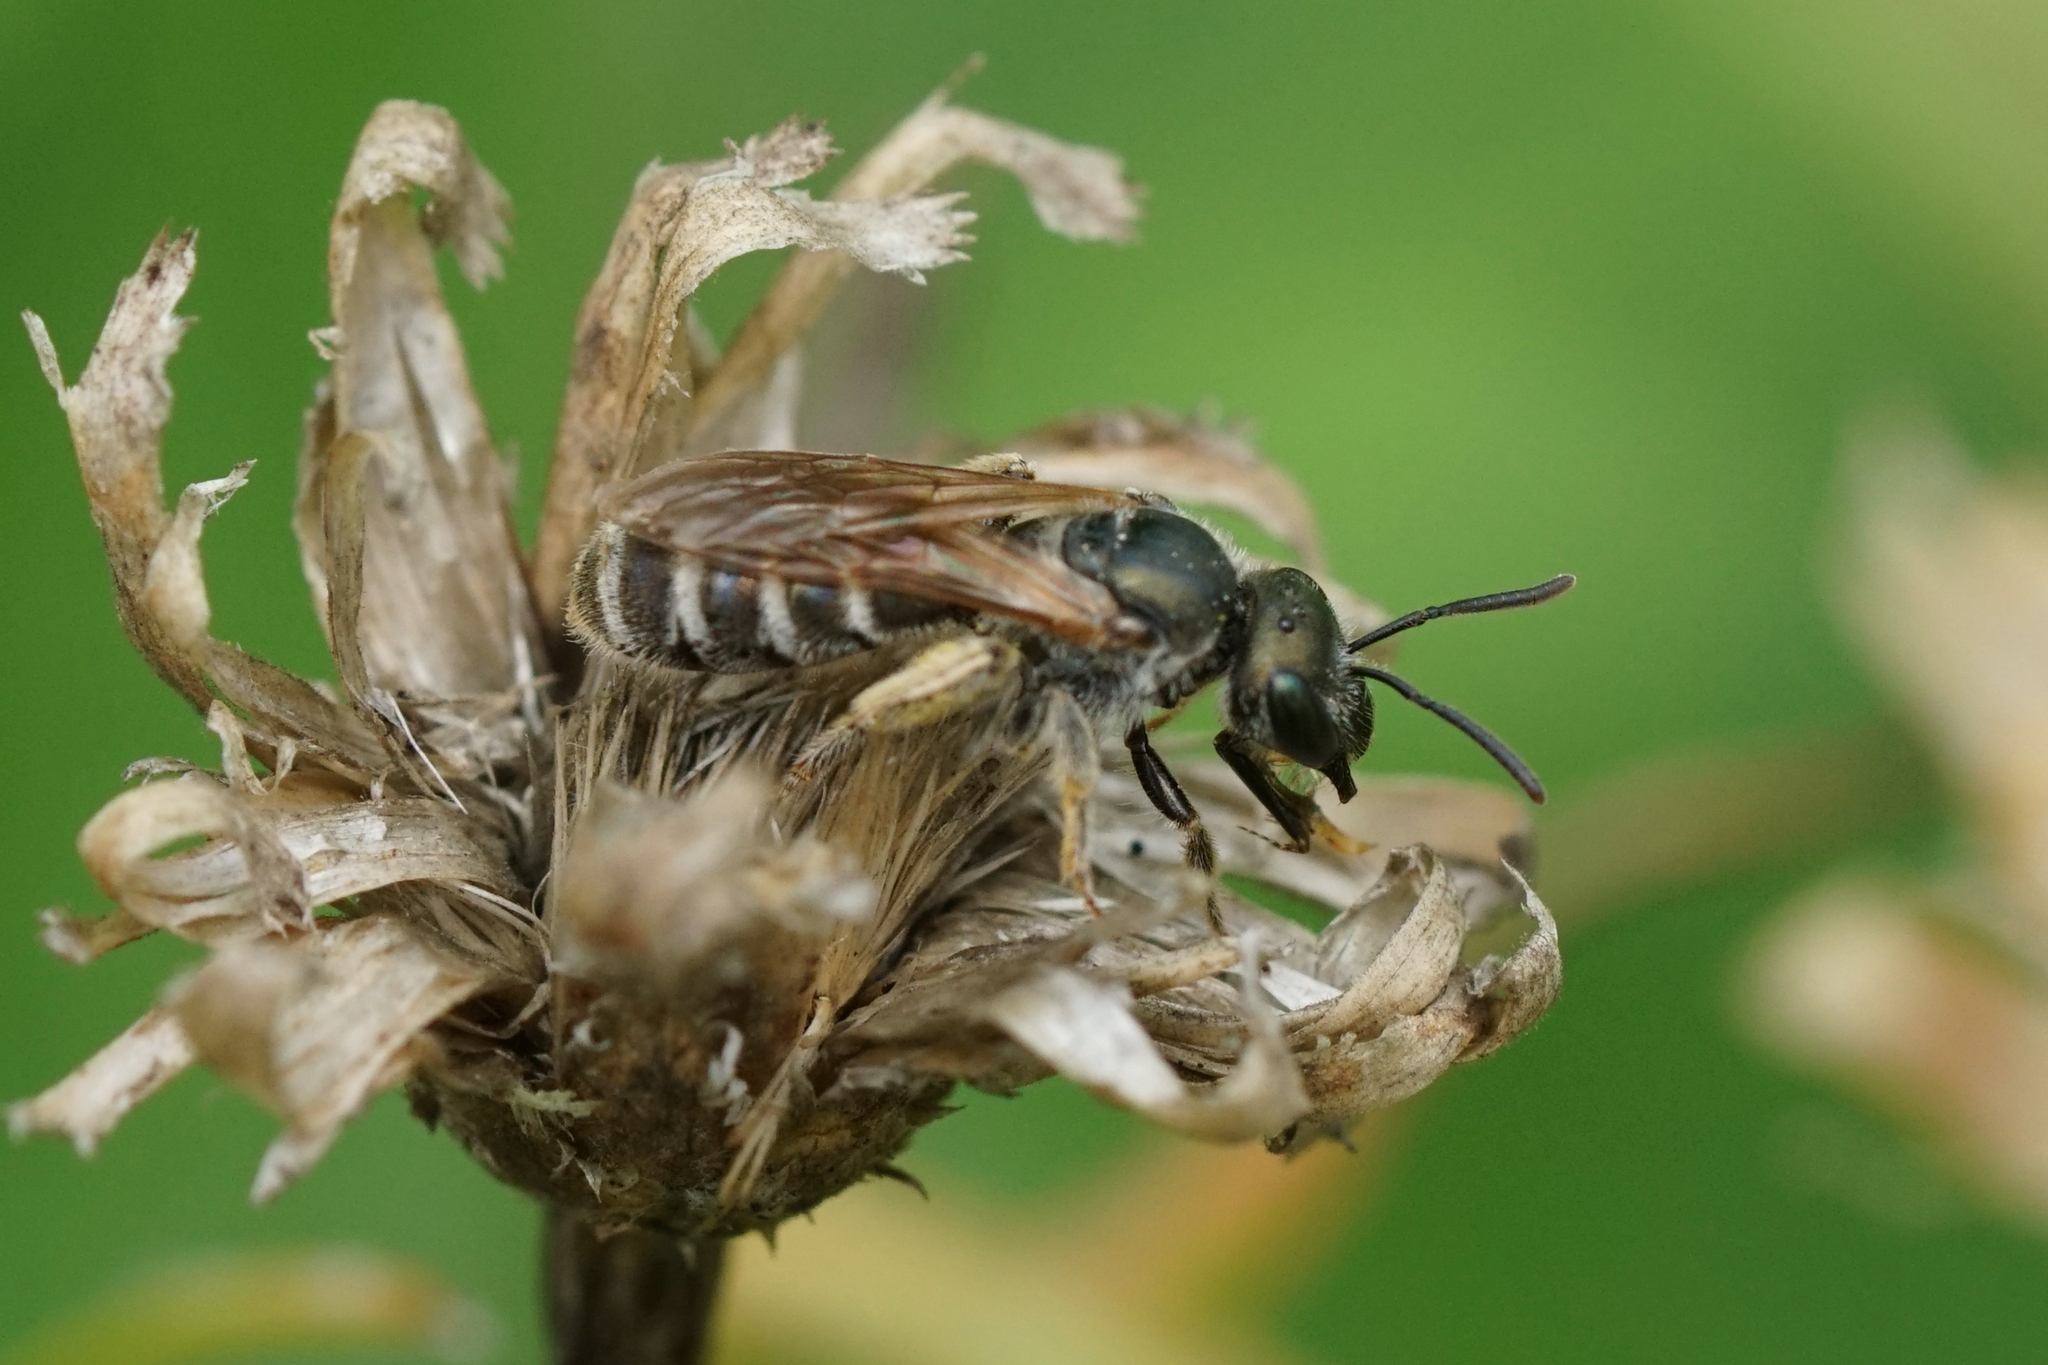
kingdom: Animalia
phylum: Arthropoda
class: Insecta
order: Hymenoptera
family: Halictidae
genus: Halictus
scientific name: Halictus confusus
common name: Southern bronze furrow bee
